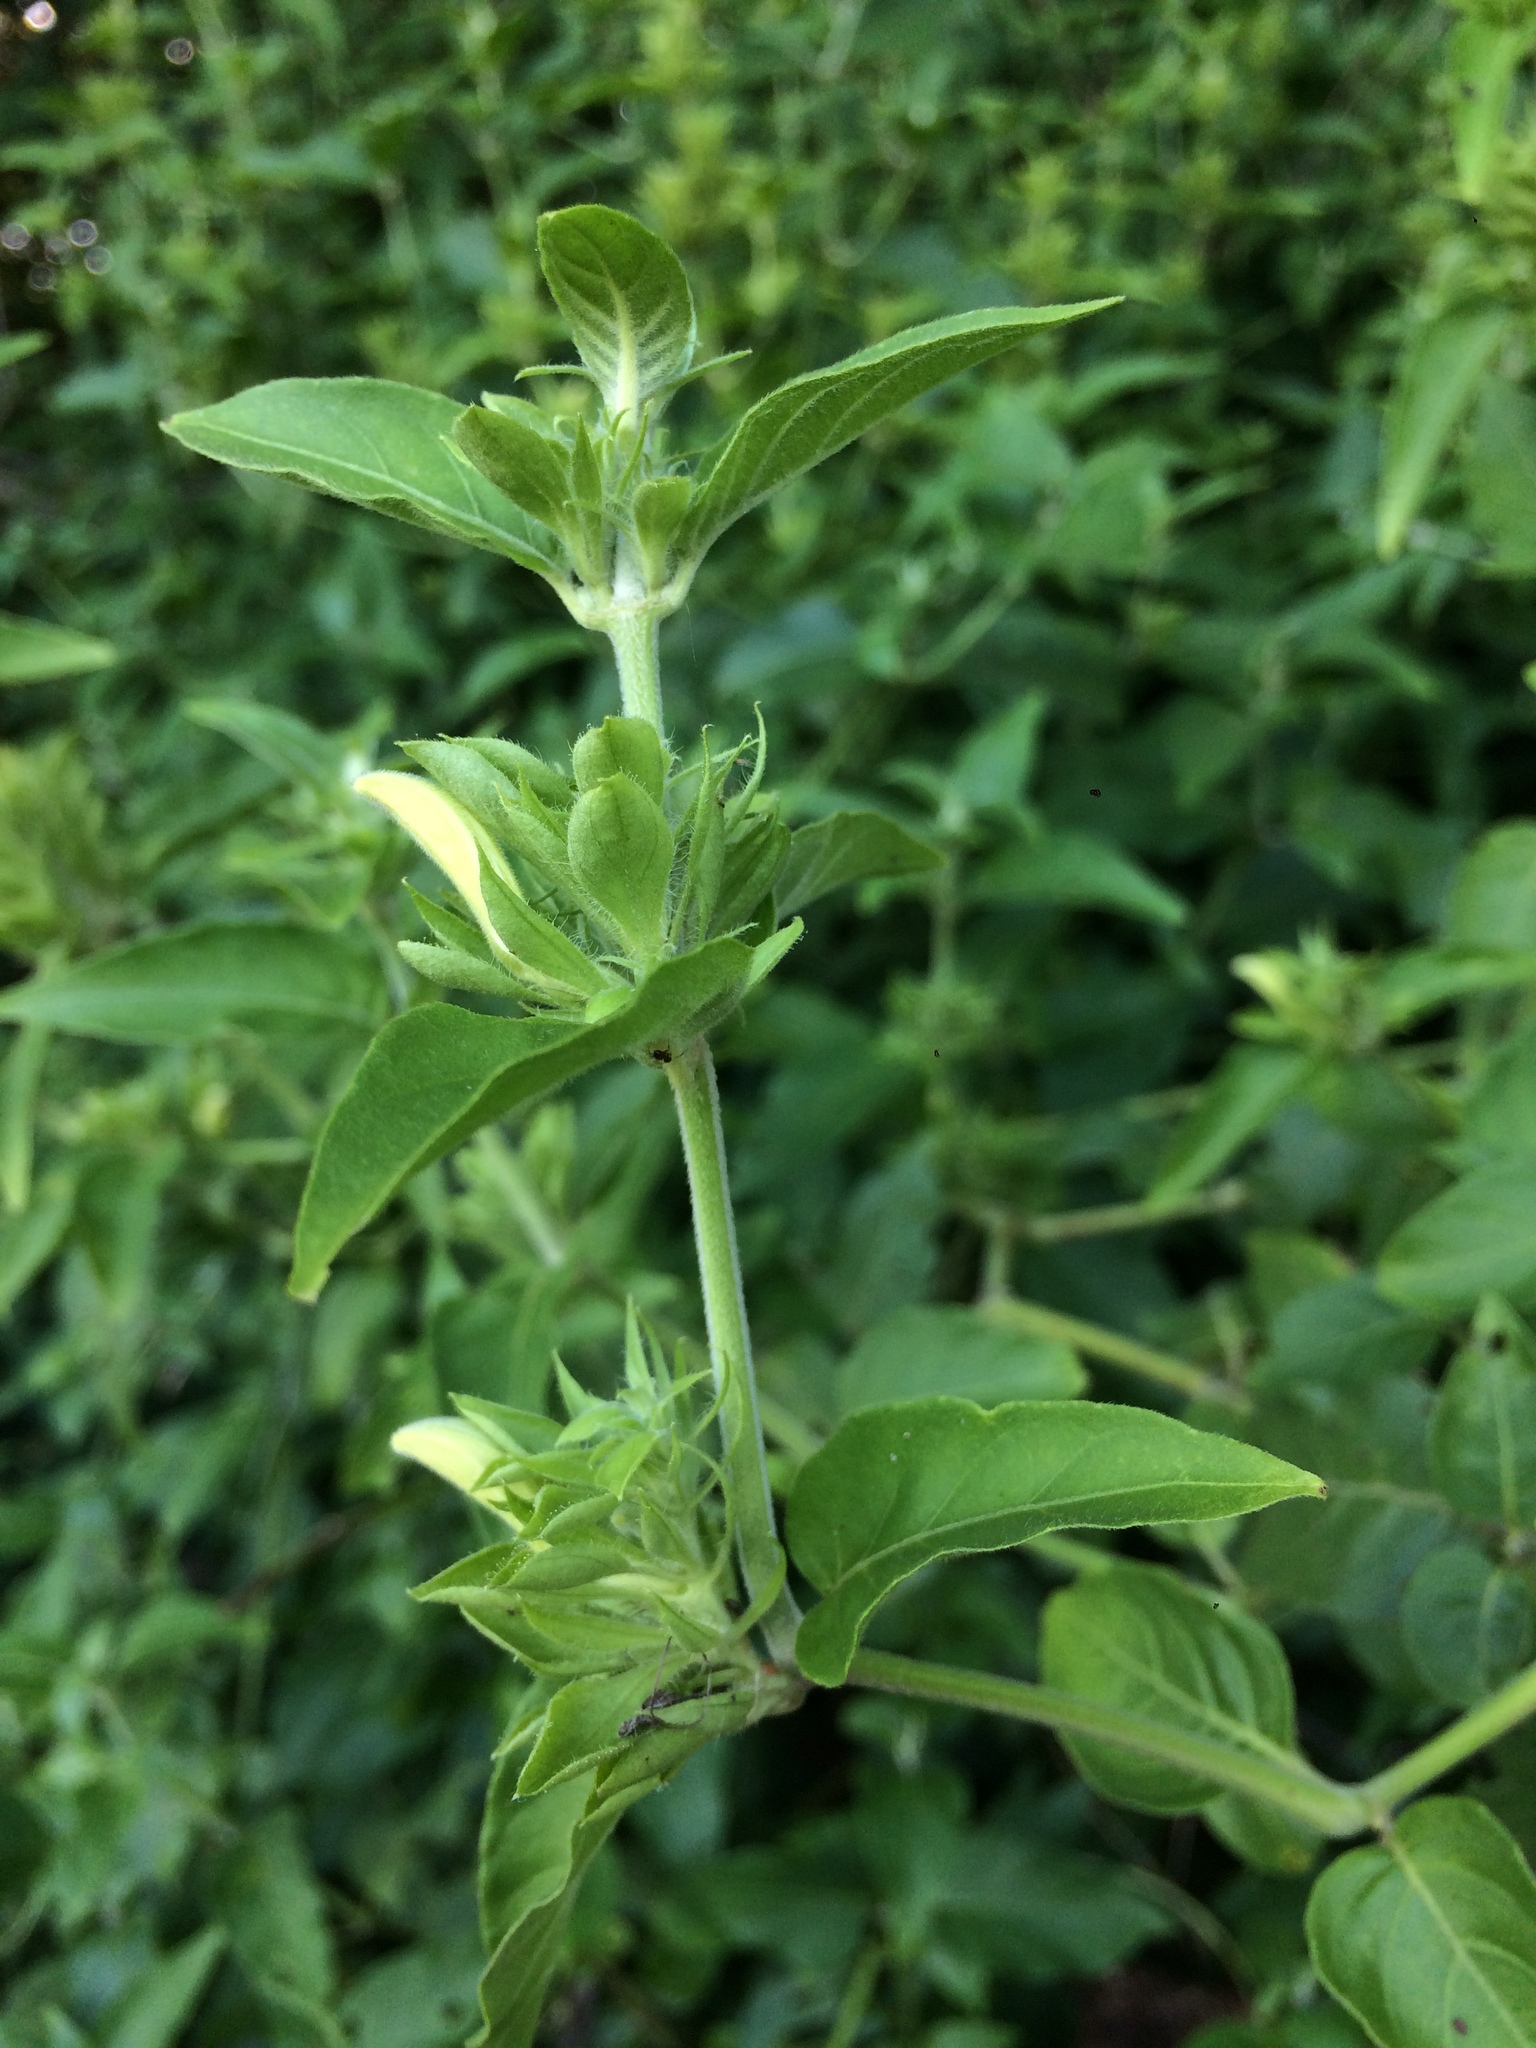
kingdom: Plantae
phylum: Tracheophyta
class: Magnoliopsida
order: Lamiales
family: Acanthaceae
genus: Poikilacanthus
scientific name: Poikilacanthus glandulosus
